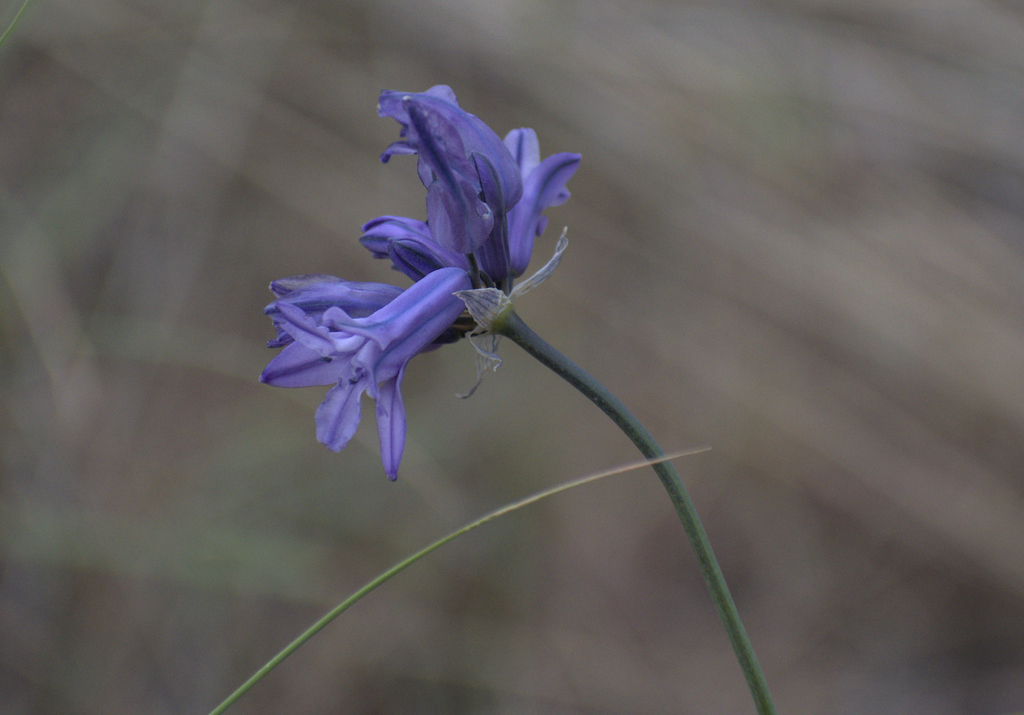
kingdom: Plantae
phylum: Tracheophyta
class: Liliopsida
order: Asparagales
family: Asparagaceae
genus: Triteleia
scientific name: Triteleia grandiflora
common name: Wild hyacinth
